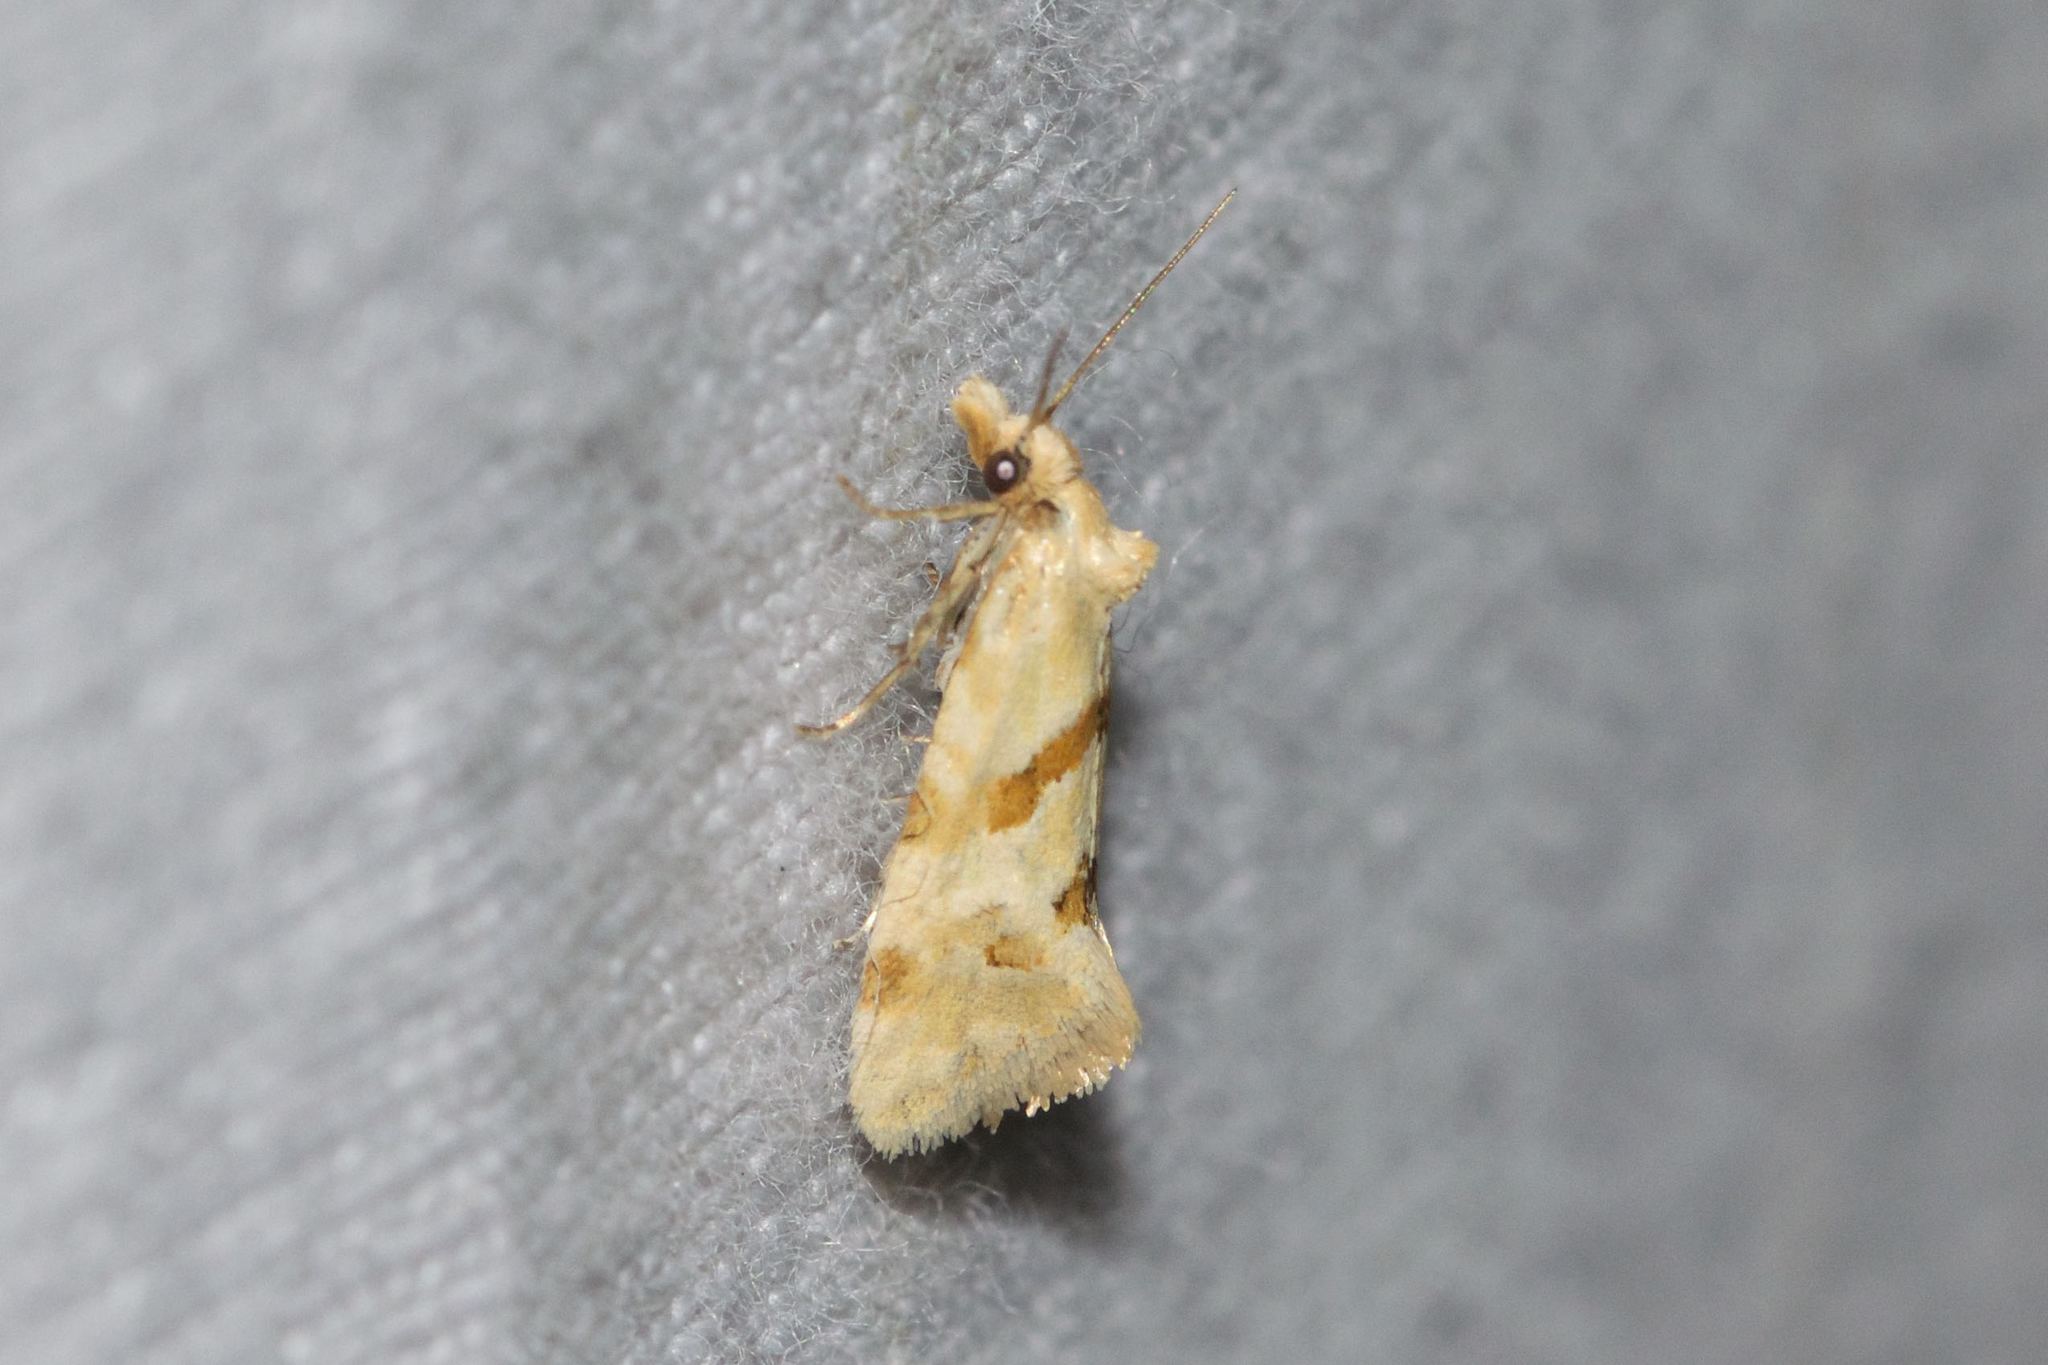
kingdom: Animalia
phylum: Arthropoda
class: Insecta
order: Lepidoptera
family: Tortricidae
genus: Aethes
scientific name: Aethes smeathmanniana
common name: Yarrow conch
